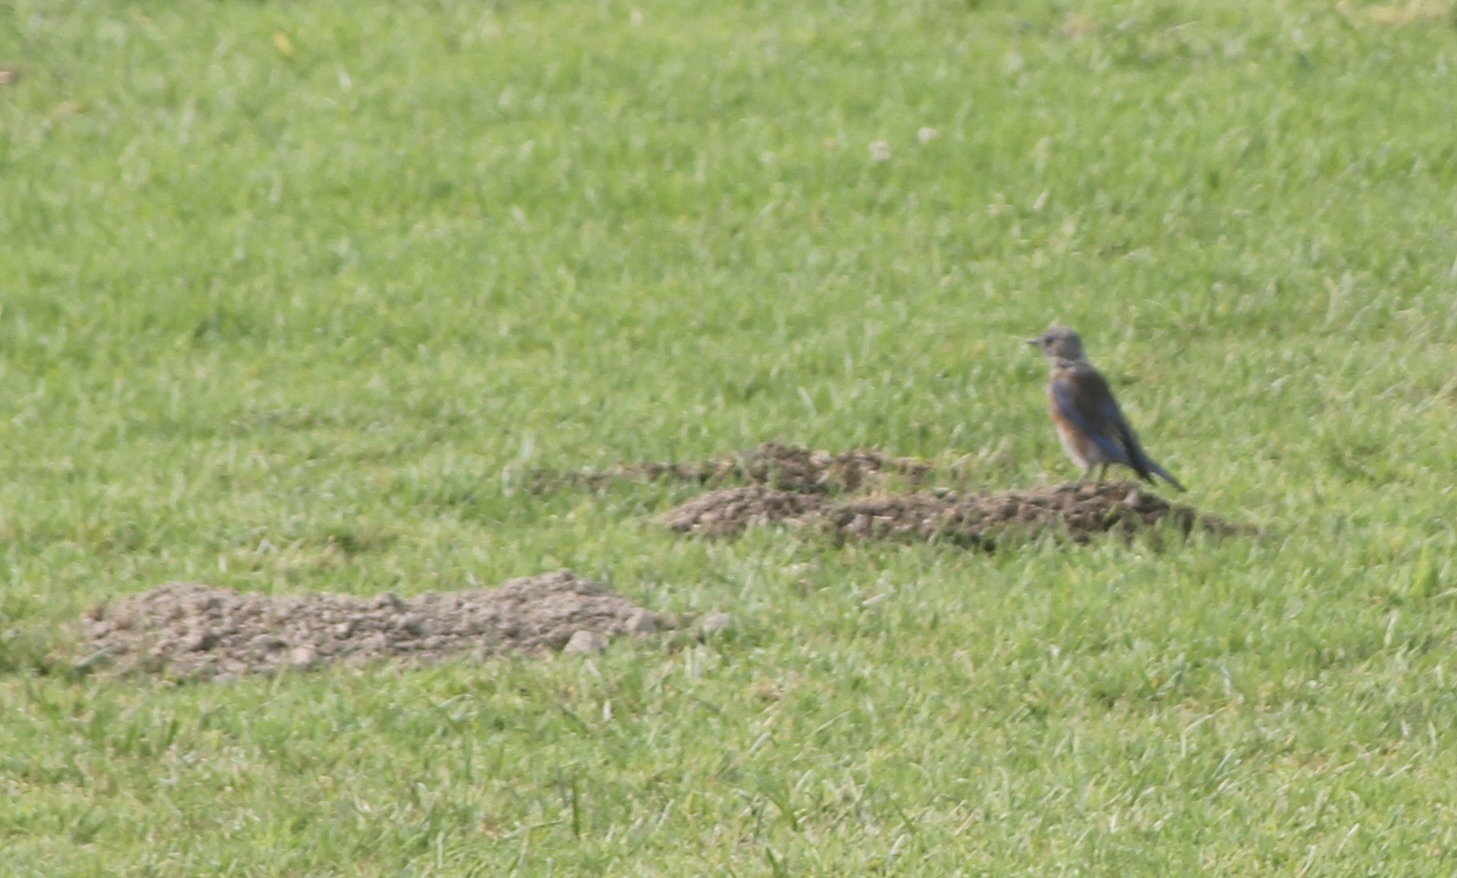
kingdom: Animalia
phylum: Chordata
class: Aves
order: Passeriformes
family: Turdidae
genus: Sialia
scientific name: Sialia mexicana
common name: Western bluebird
